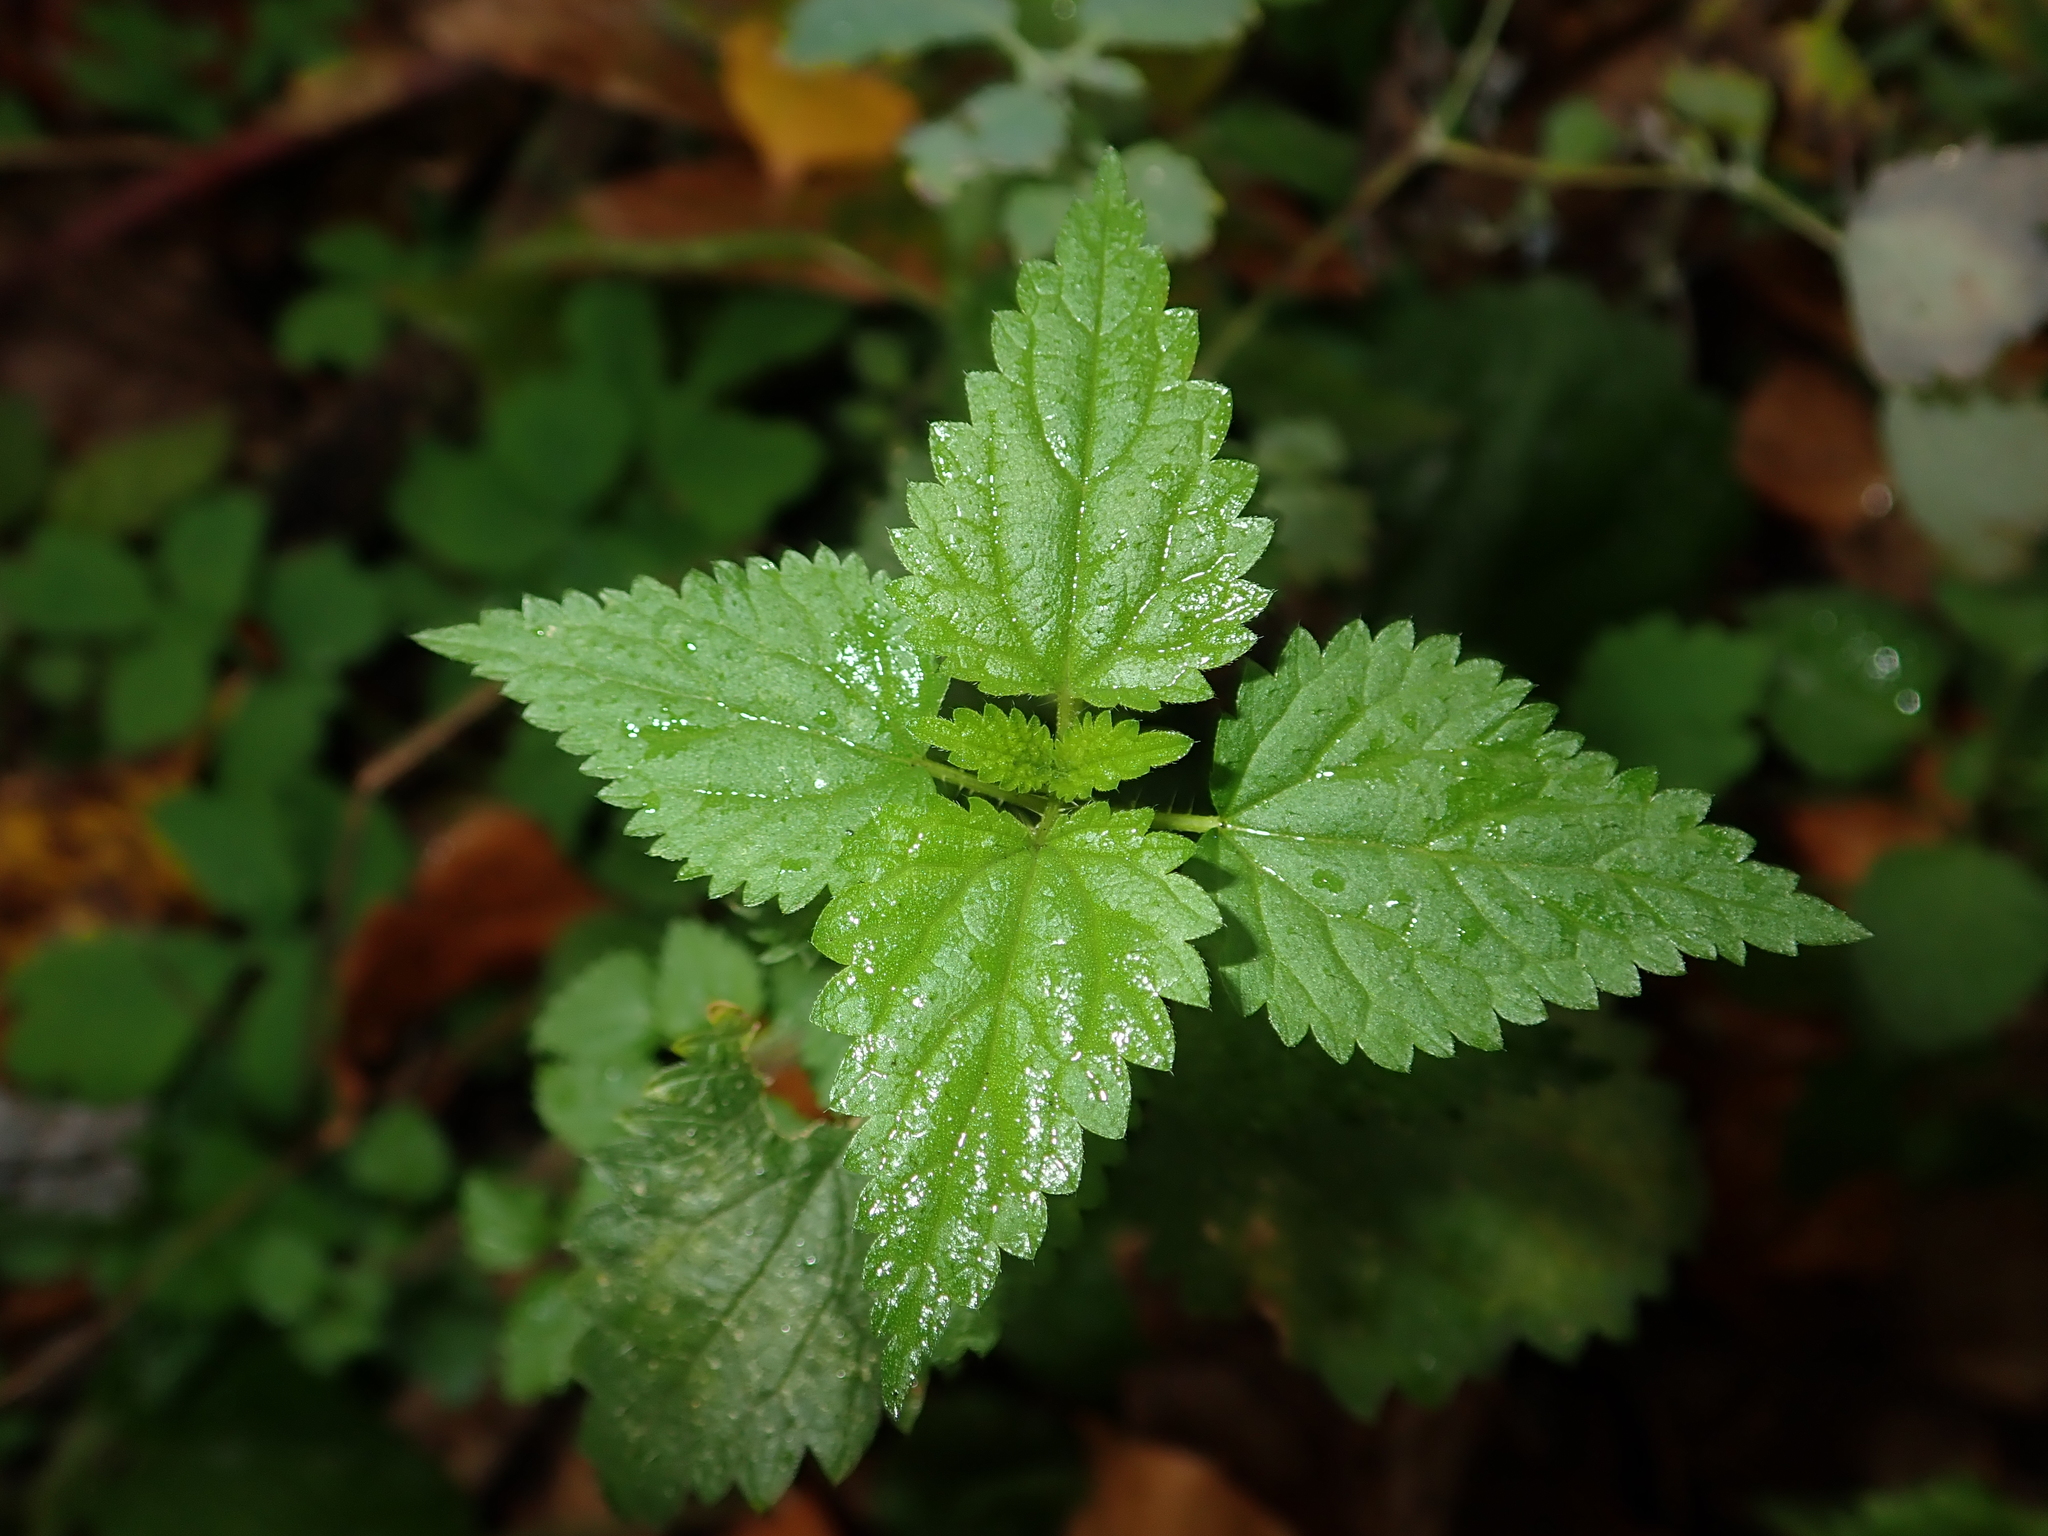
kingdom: Plantae
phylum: Tracheophyta
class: Magnoliopsida
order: Rosales
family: Urticaceae
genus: Urtica
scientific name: Urtica dioica
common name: Common nettle
